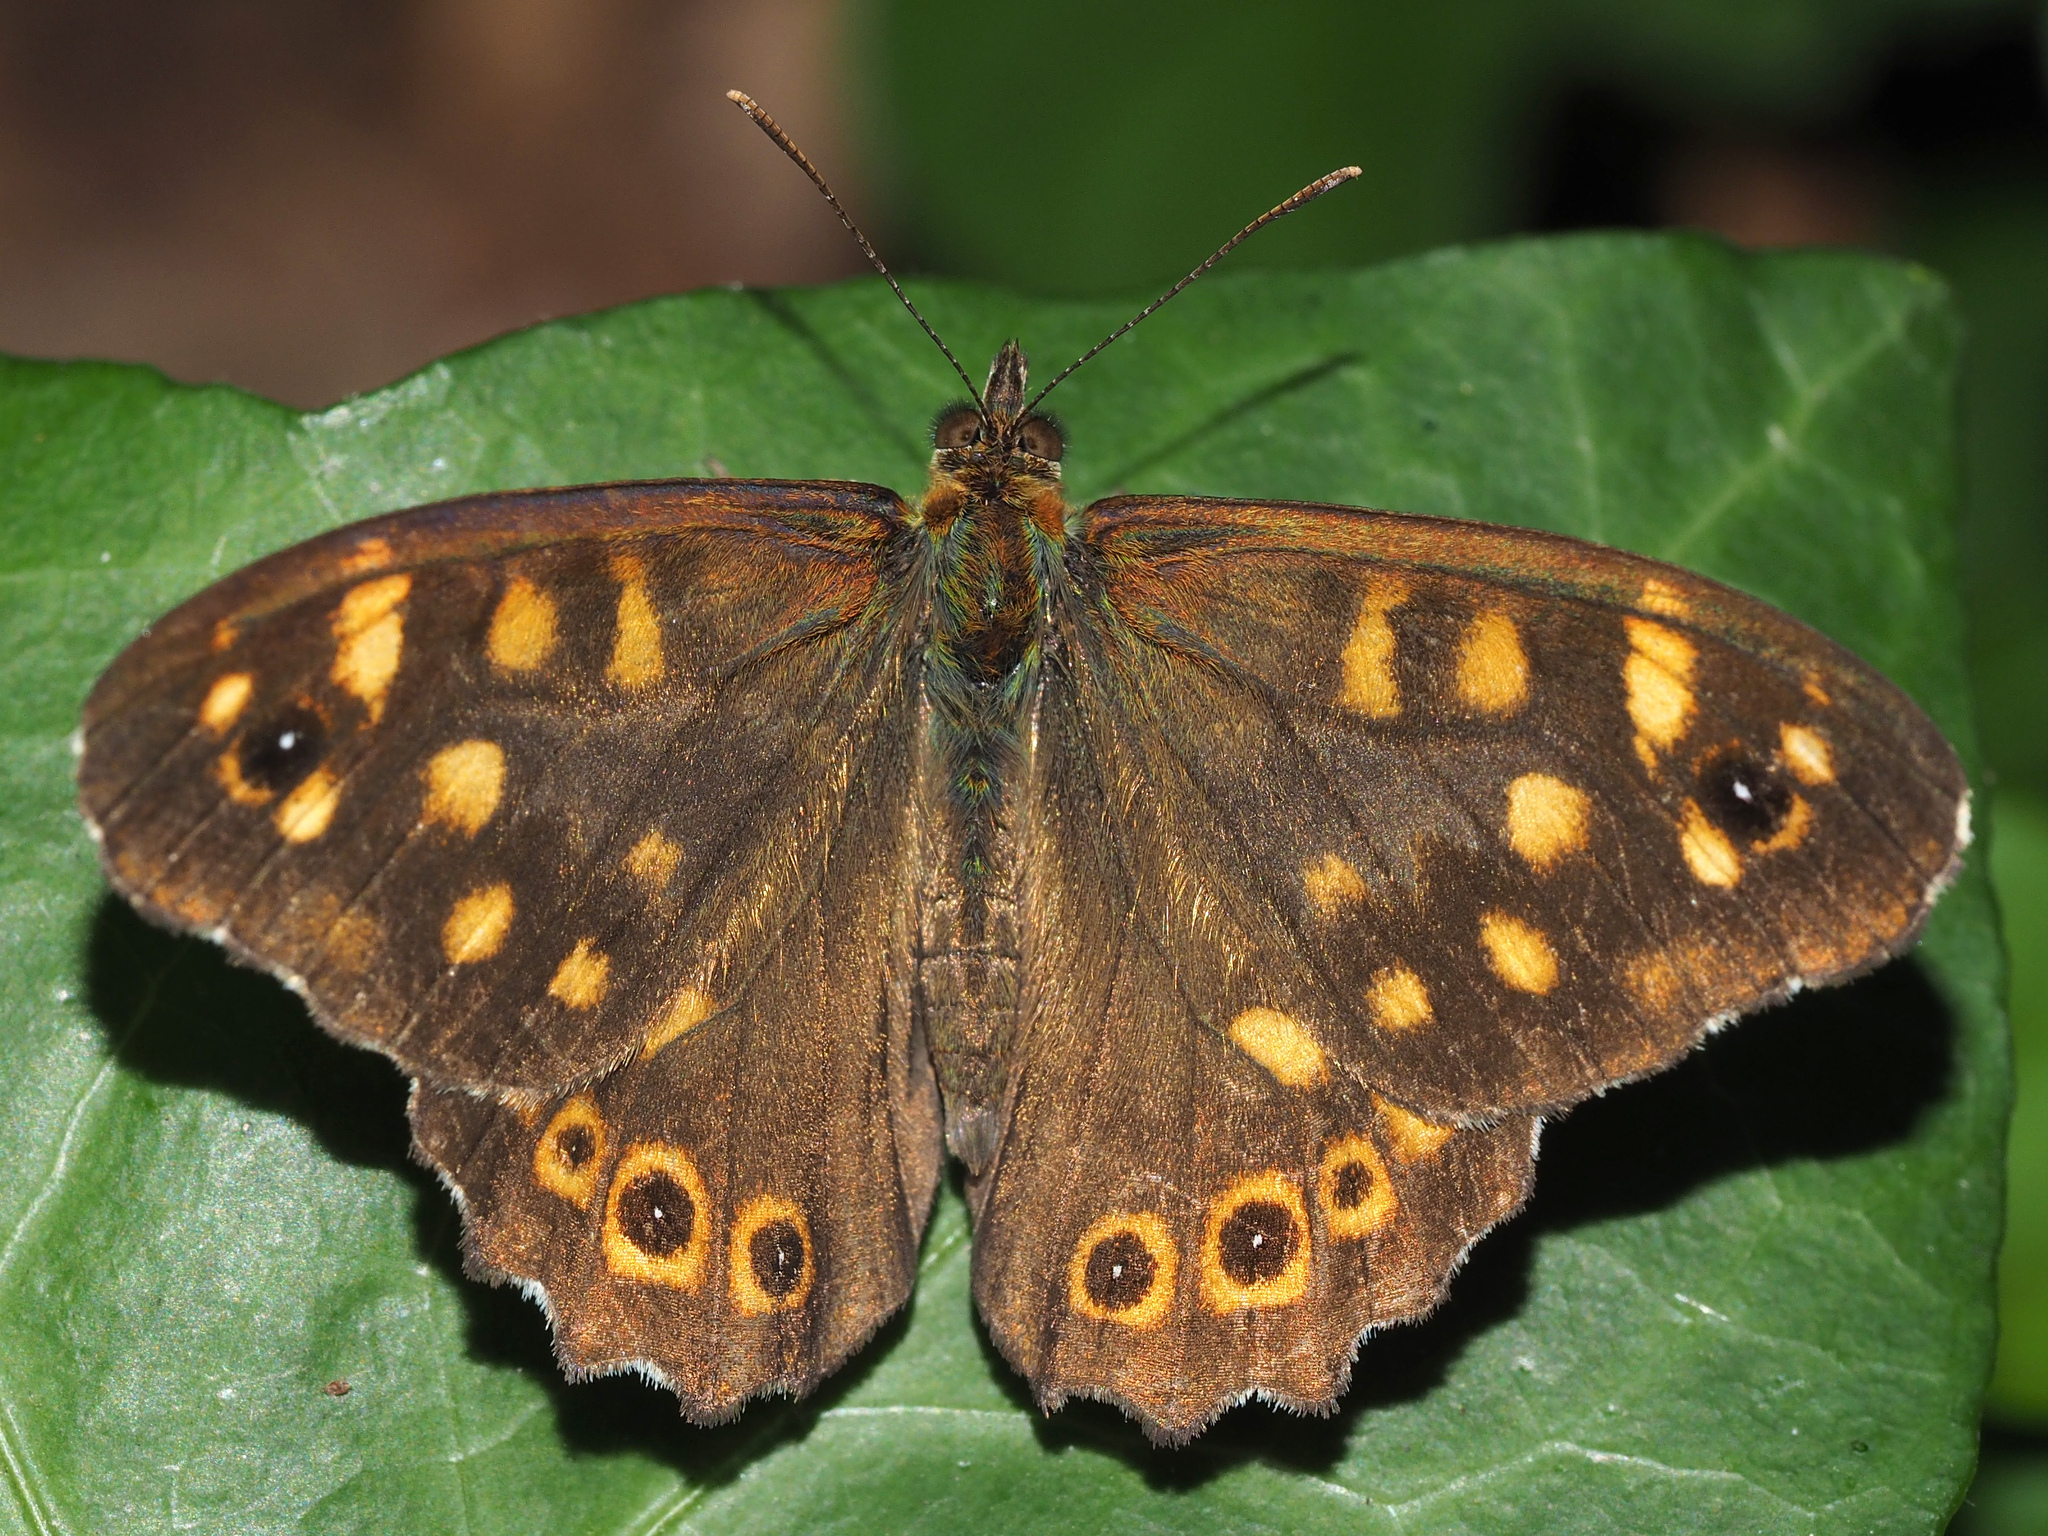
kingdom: Animalia
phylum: Arthropoda
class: Insecta
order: Lepidoptera
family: Nymphalidae
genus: Pararge
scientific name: Pararge aegeria
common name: Speckled wood
